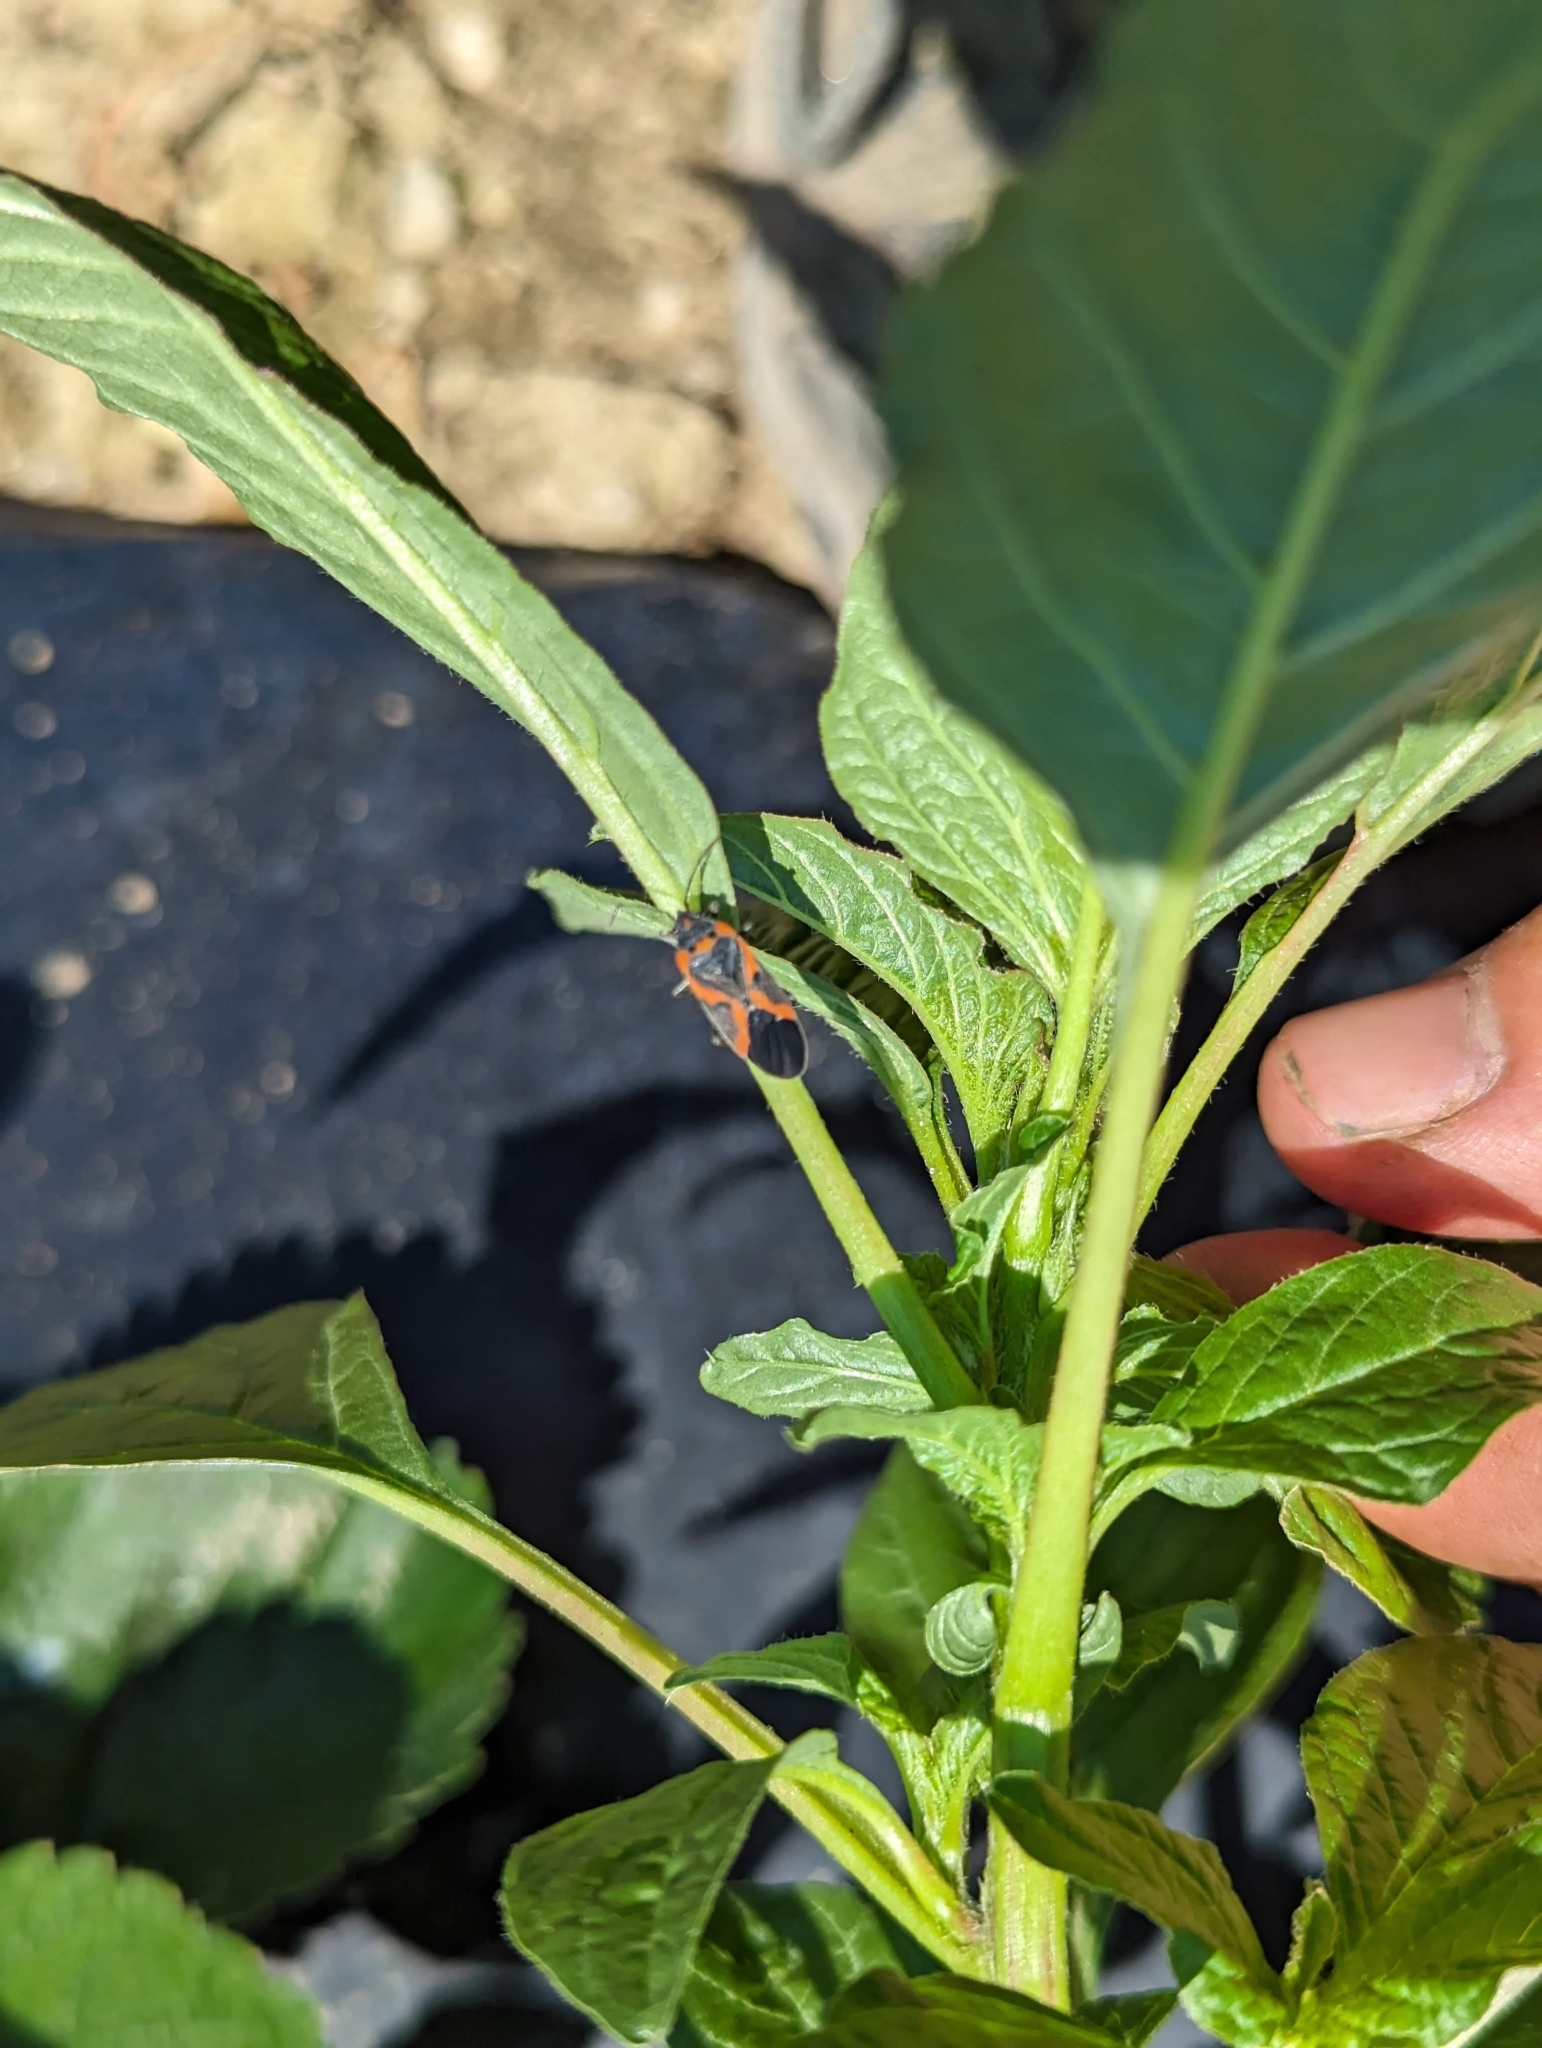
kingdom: Animalia
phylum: Arthropoda
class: Insecta
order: Hemiptera
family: Lygaeidae
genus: Lygaeus
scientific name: Lygaeus kalmii
